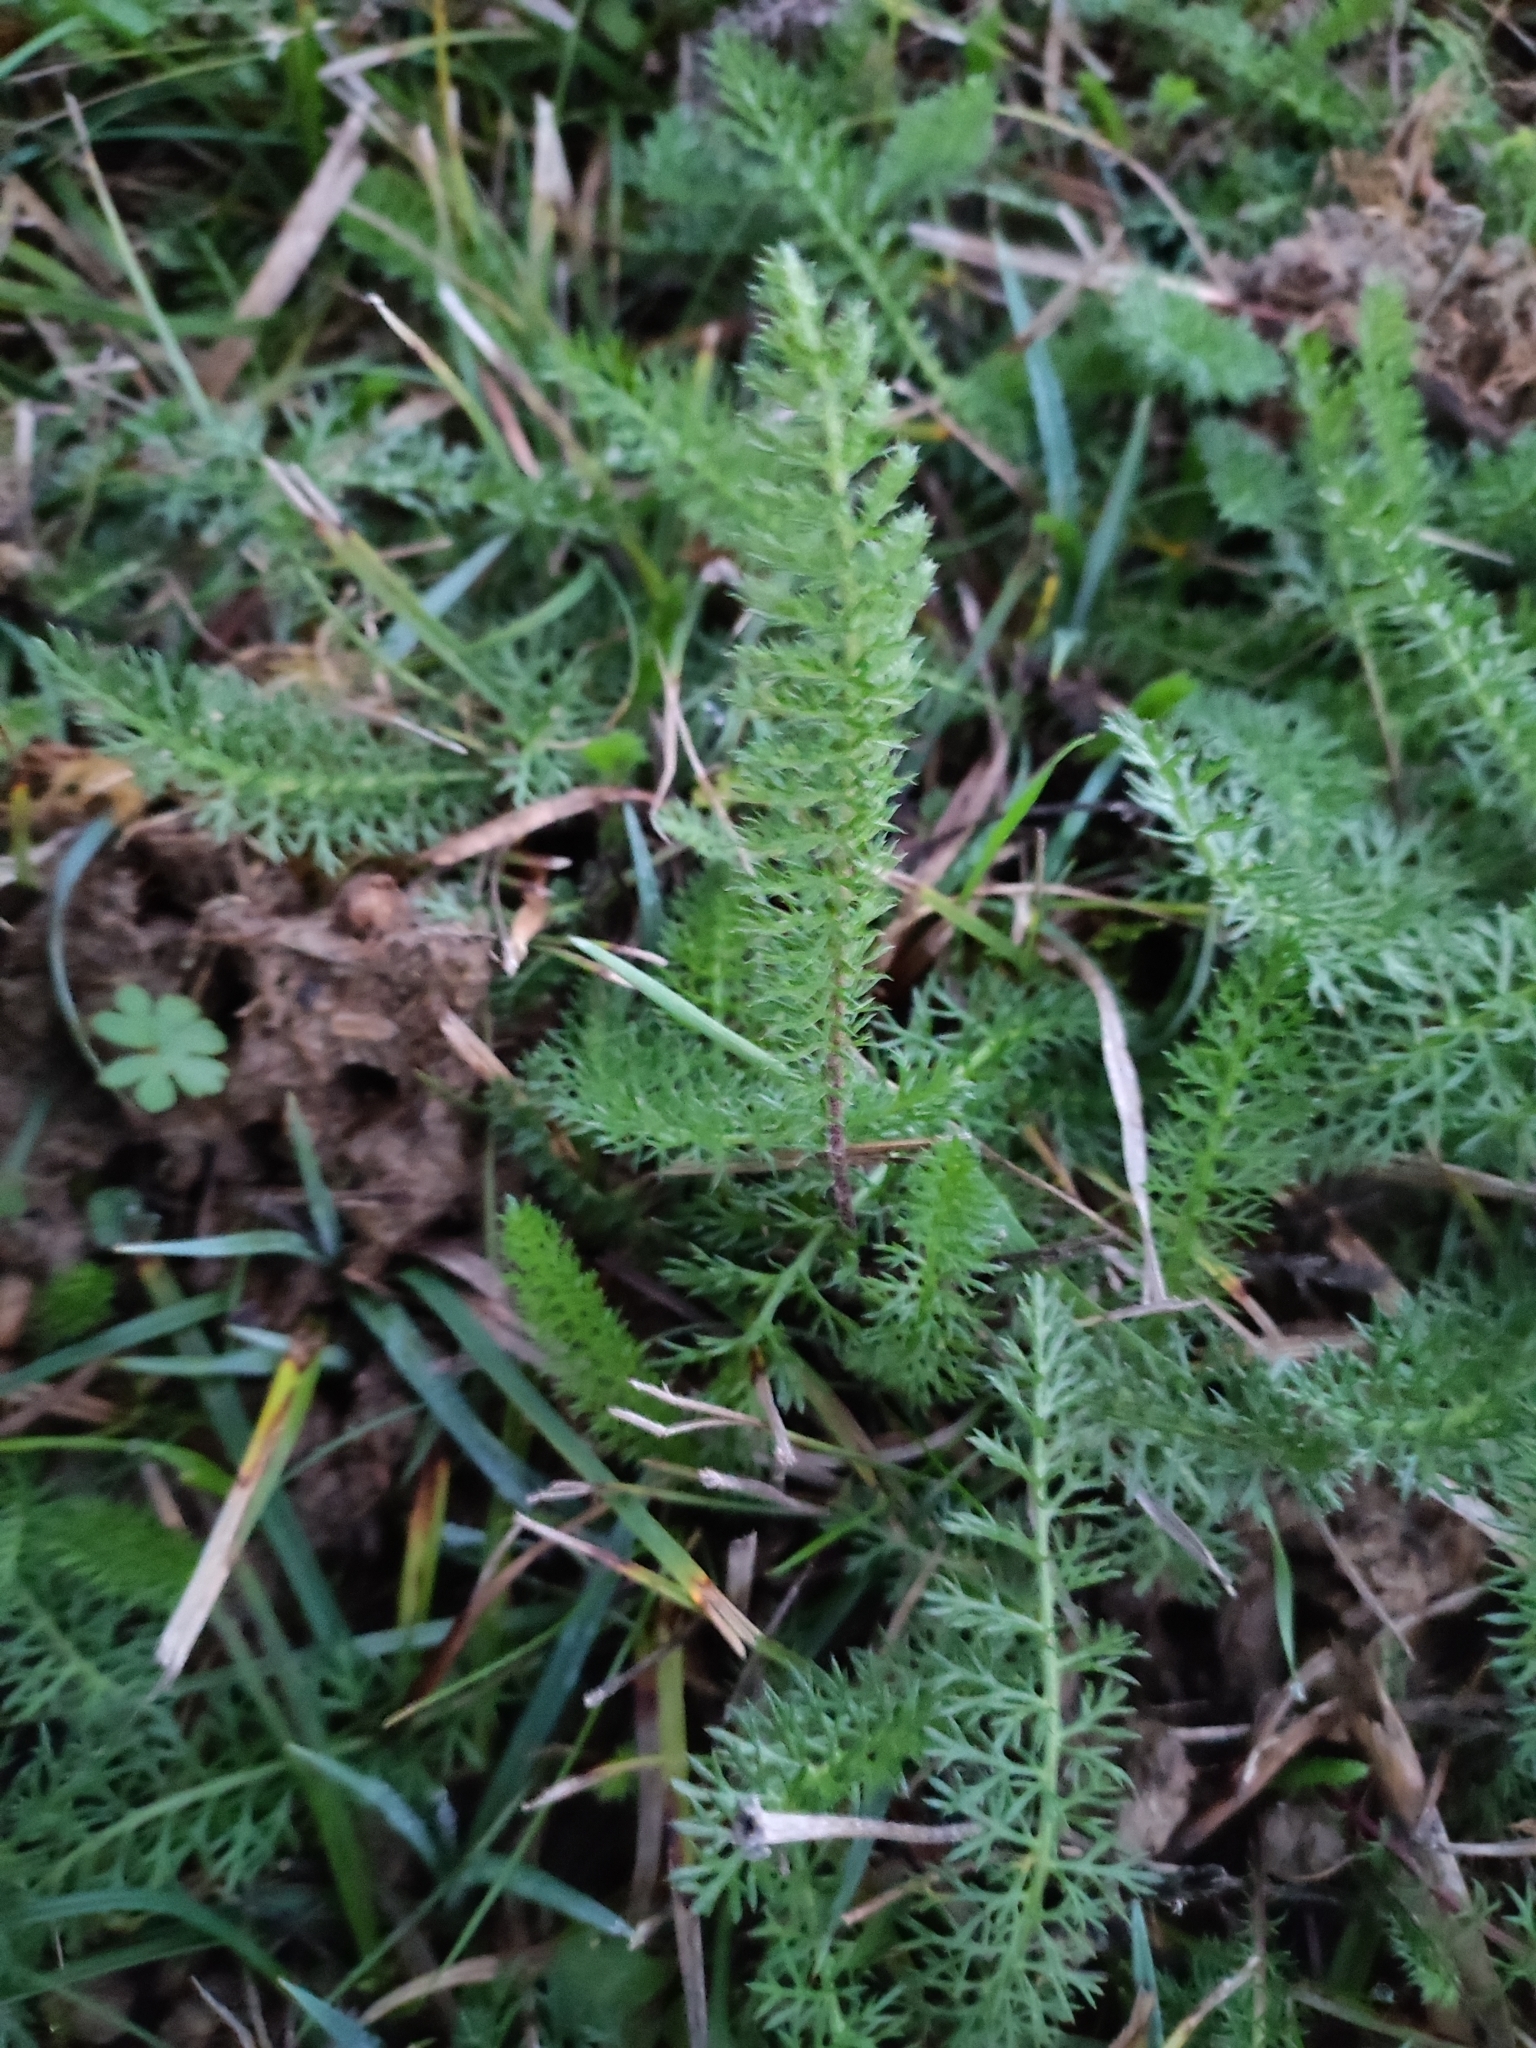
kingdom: Plantae
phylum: Tracheophyta
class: Magnoliopsida
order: Asterales
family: Asteraceae
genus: Achillea
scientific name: Achillea millefolium
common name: Yarrow
